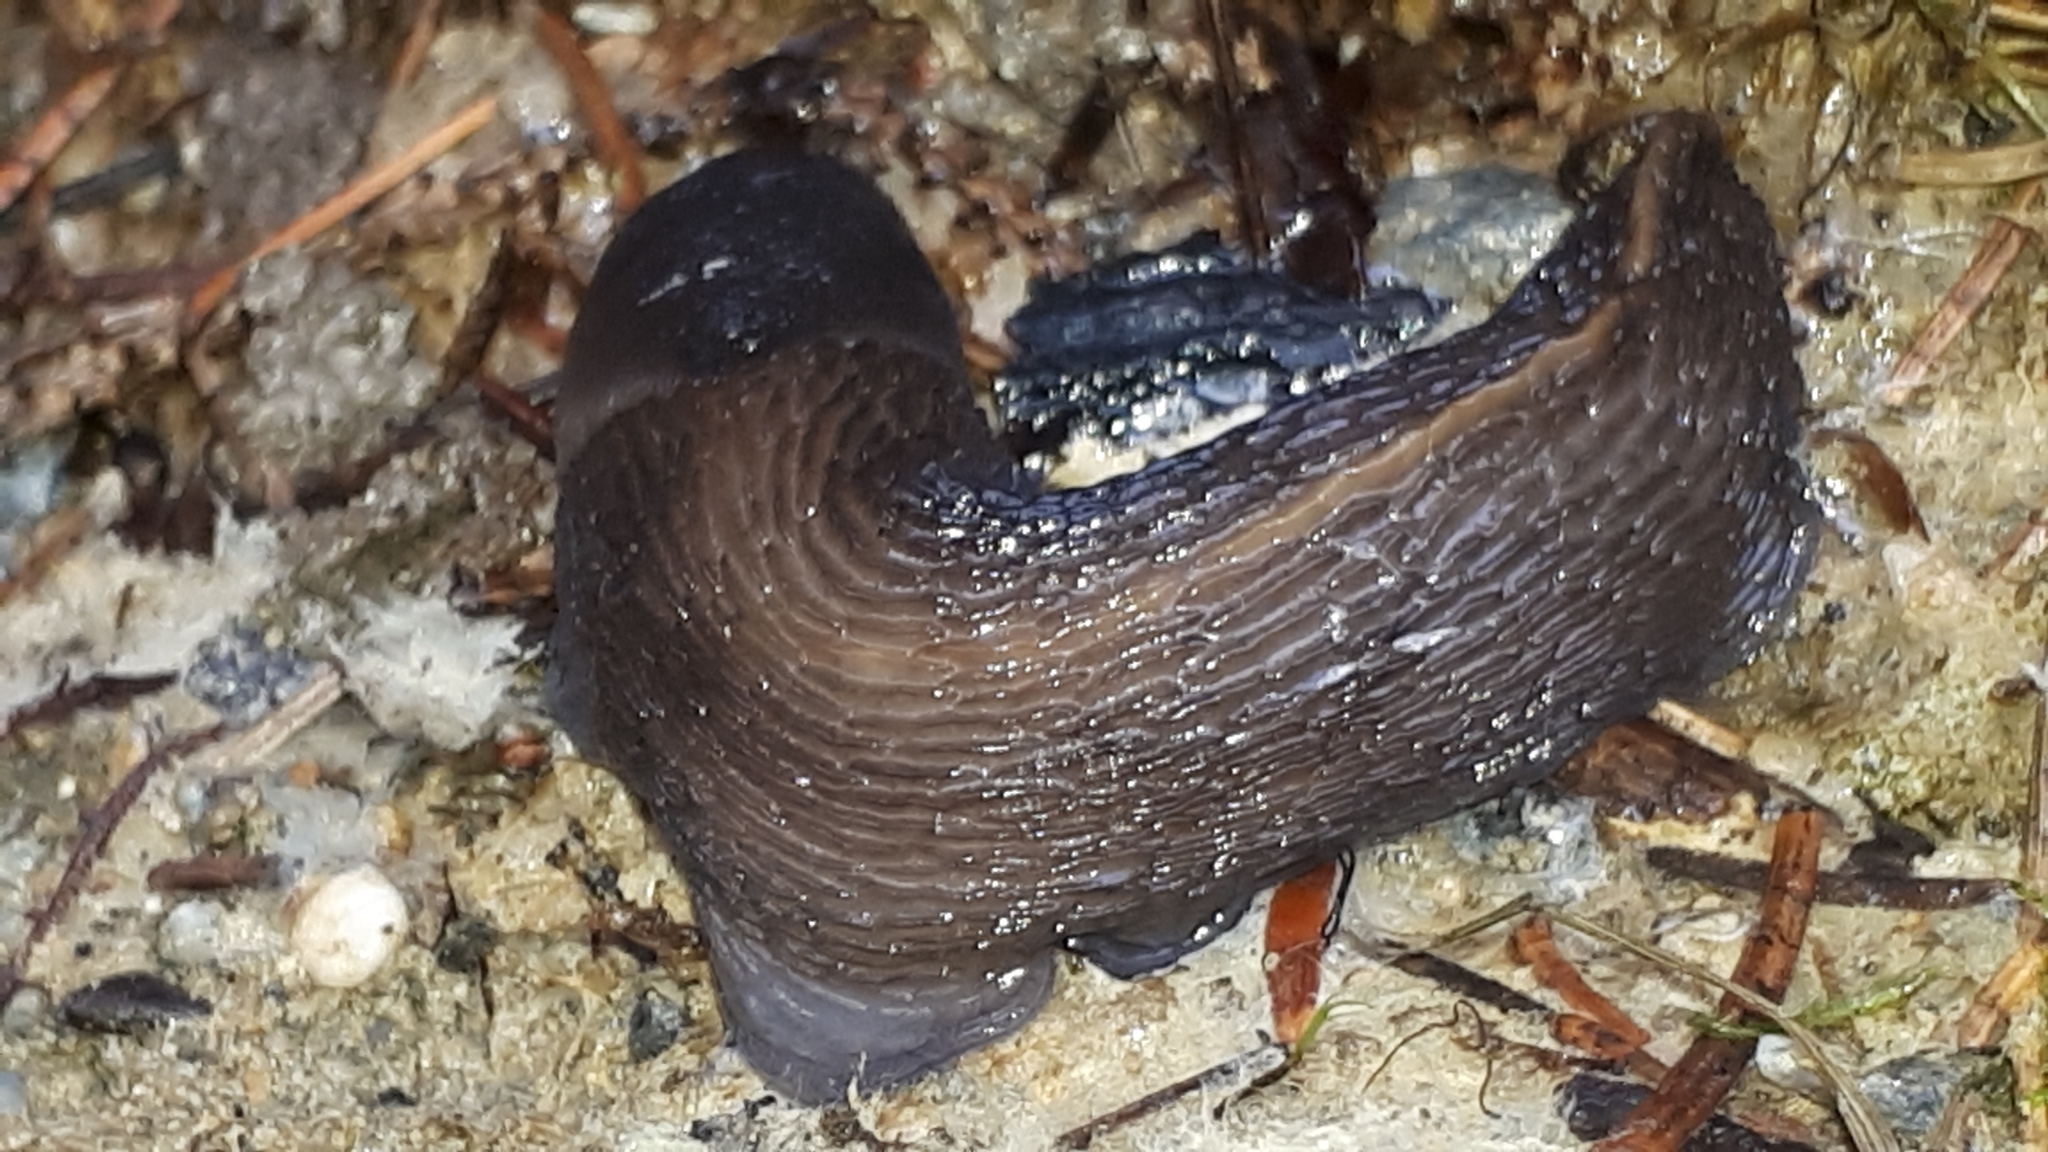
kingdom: Animalia
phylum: Mollusca
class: Gastropoda
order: Stylommatophora
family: Limacidae
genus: Limax
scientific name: Limax cinereoniger
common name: Ash-black slug
